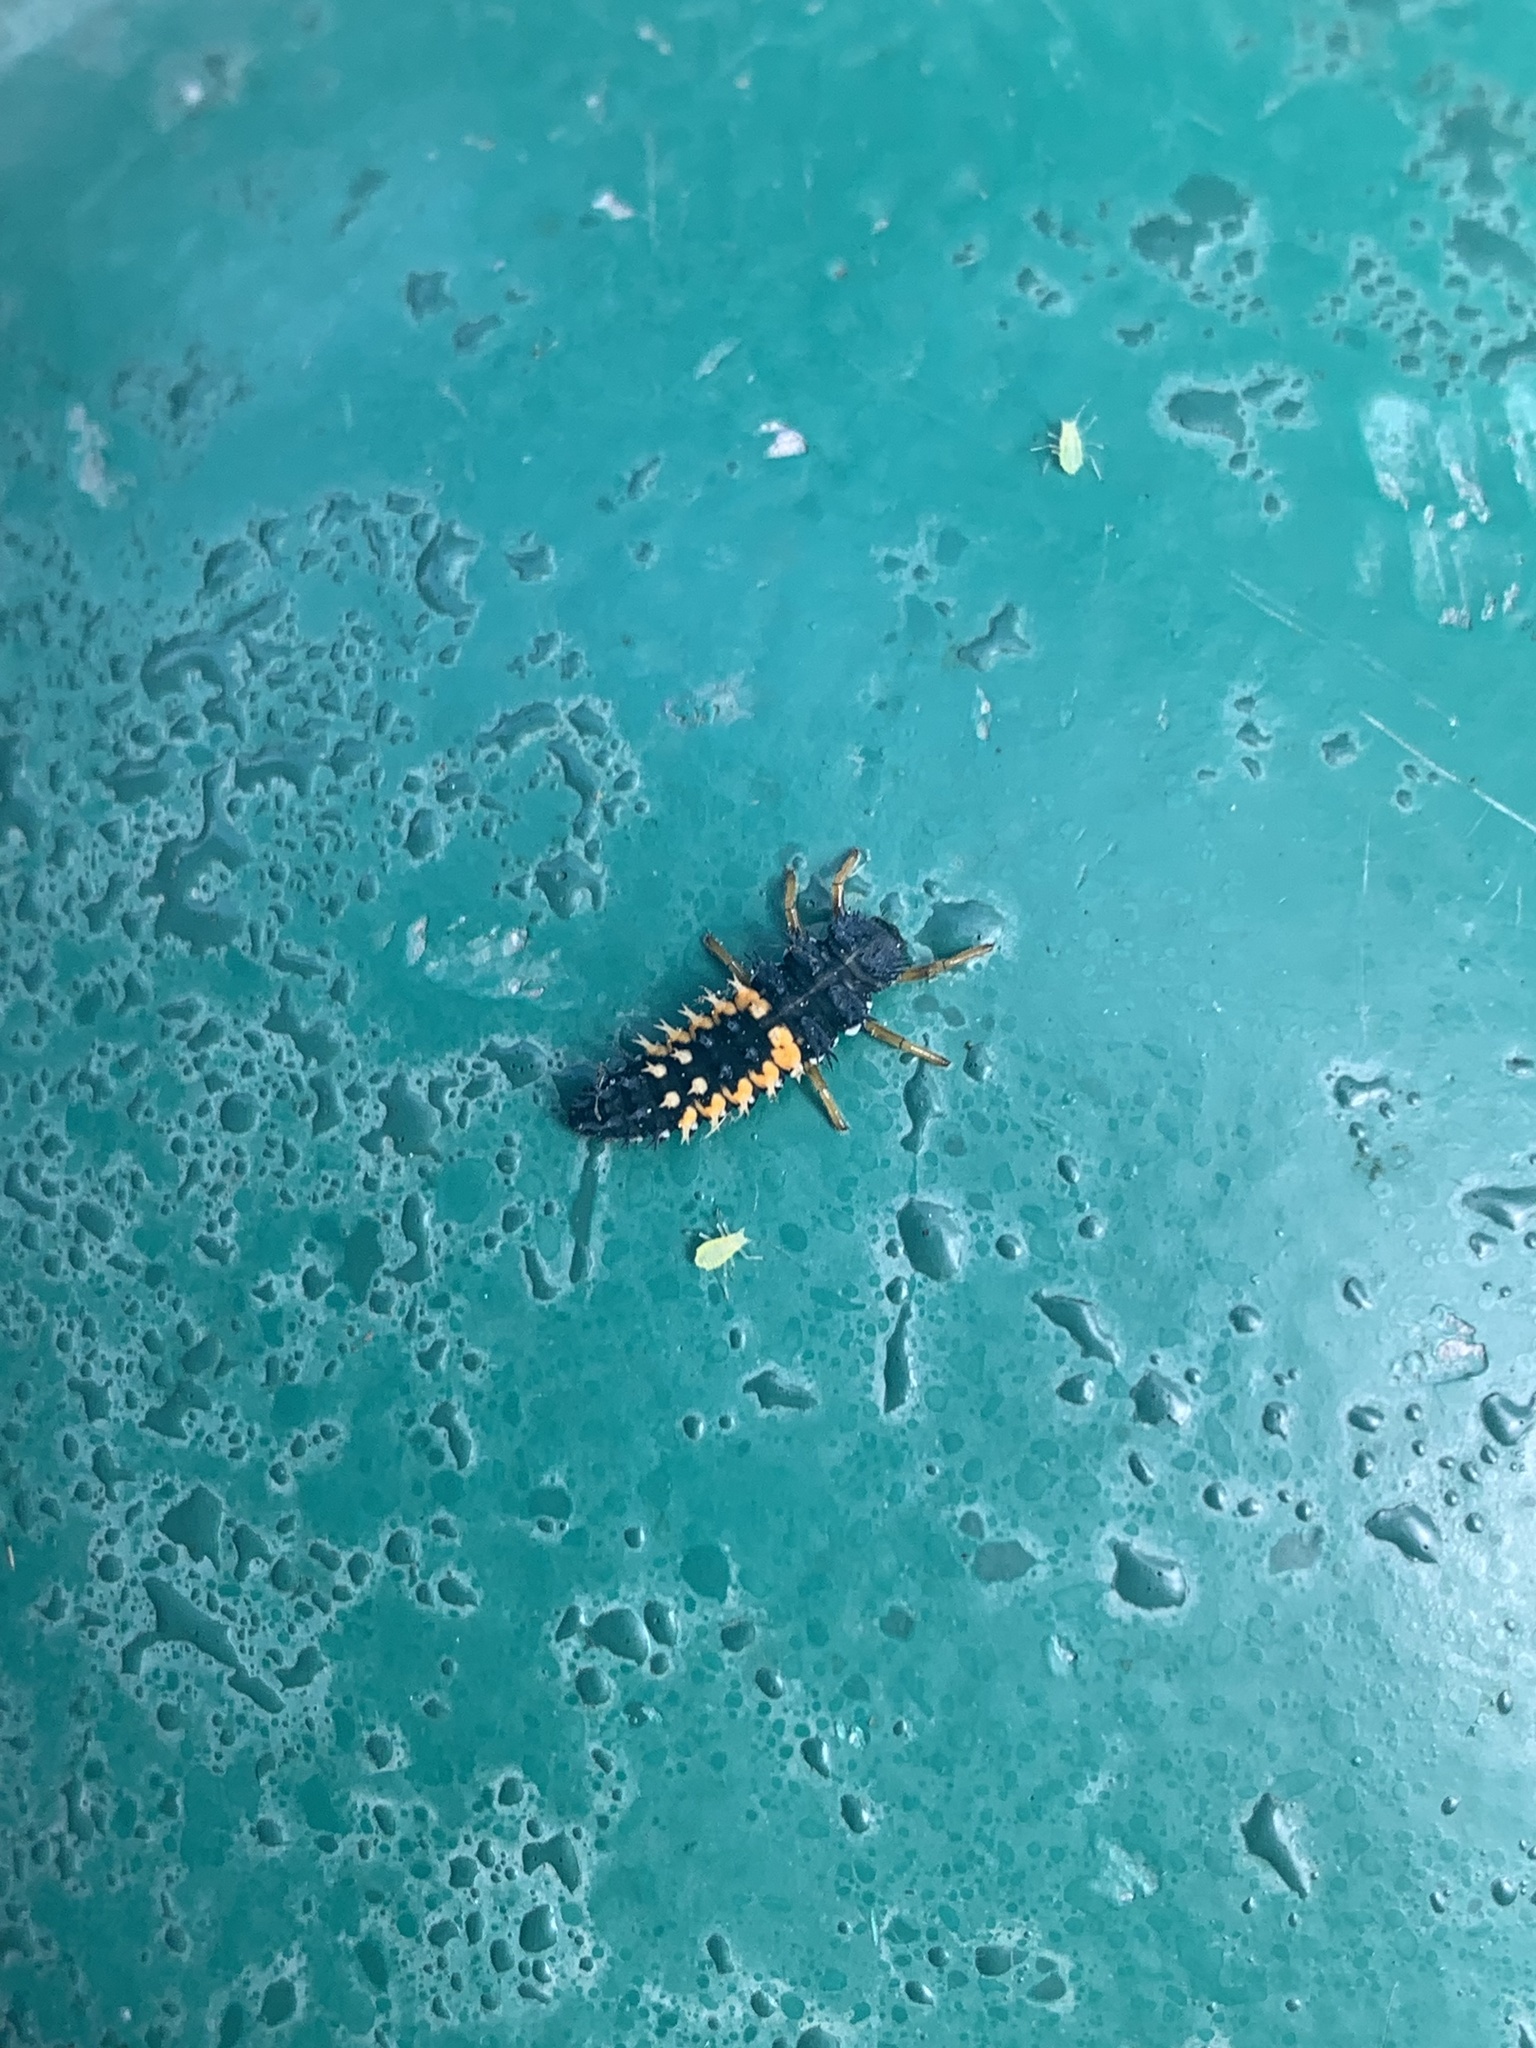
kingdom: Animalia
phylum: Arthropoda
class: Insecta
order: Coleoptera
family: Coccinellidae
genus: Harmonia
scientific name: Harmonia axyridis
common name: Harlequin ladybird
